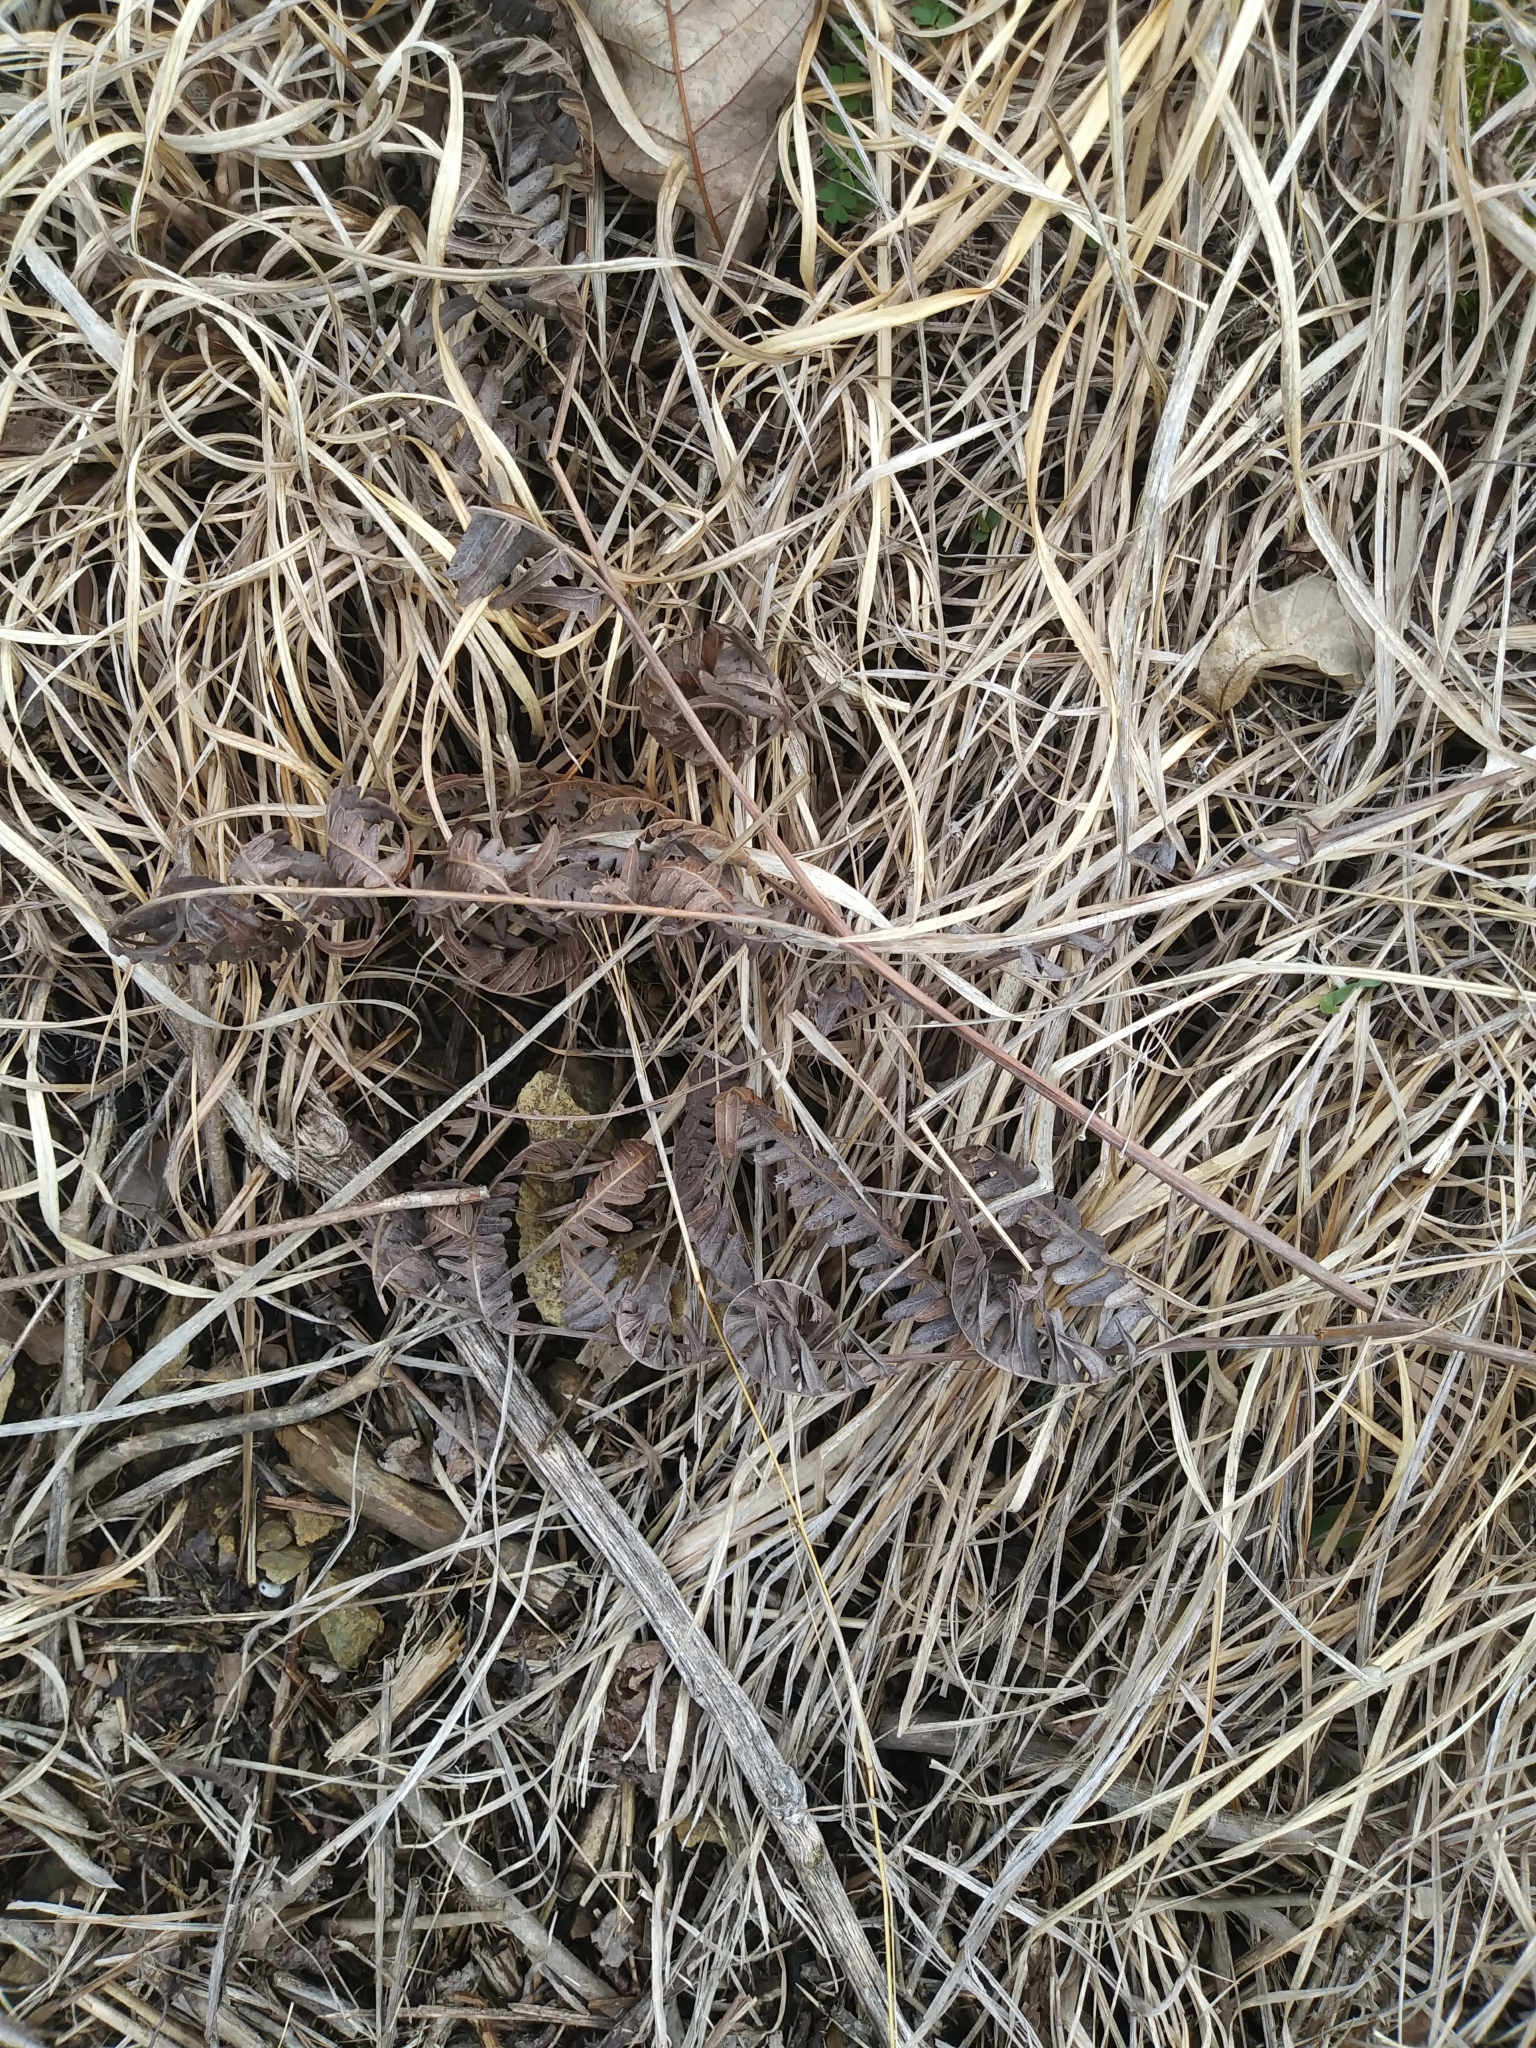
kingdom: Plantae
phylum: Tracheophyta
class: Polypodiopsida
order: Polypodiales
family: Dennstaedtiaceae
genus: Pteridium
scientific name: Pteridium aquilinum
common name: Bracken
